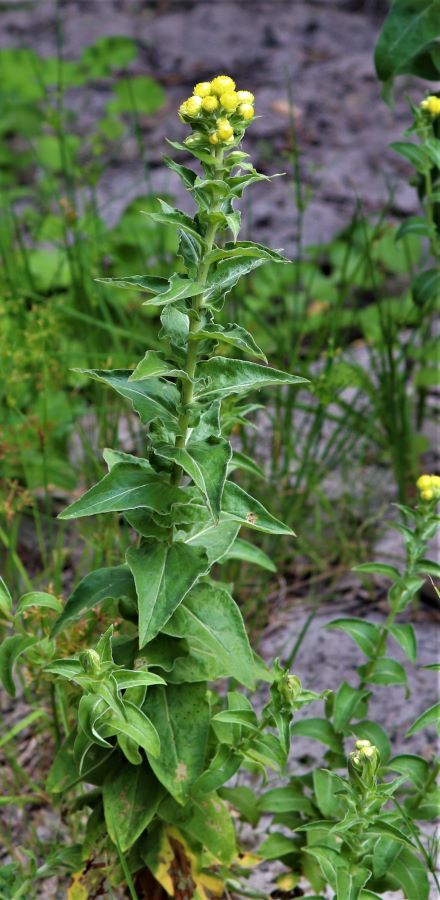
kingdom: Plantae
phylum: Tracheophyta
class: Magnoliopsida
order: Asterales
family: Asteraceae
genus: Helichrysum
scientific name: Helichrysum foetidum
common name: Stinking everlasting
